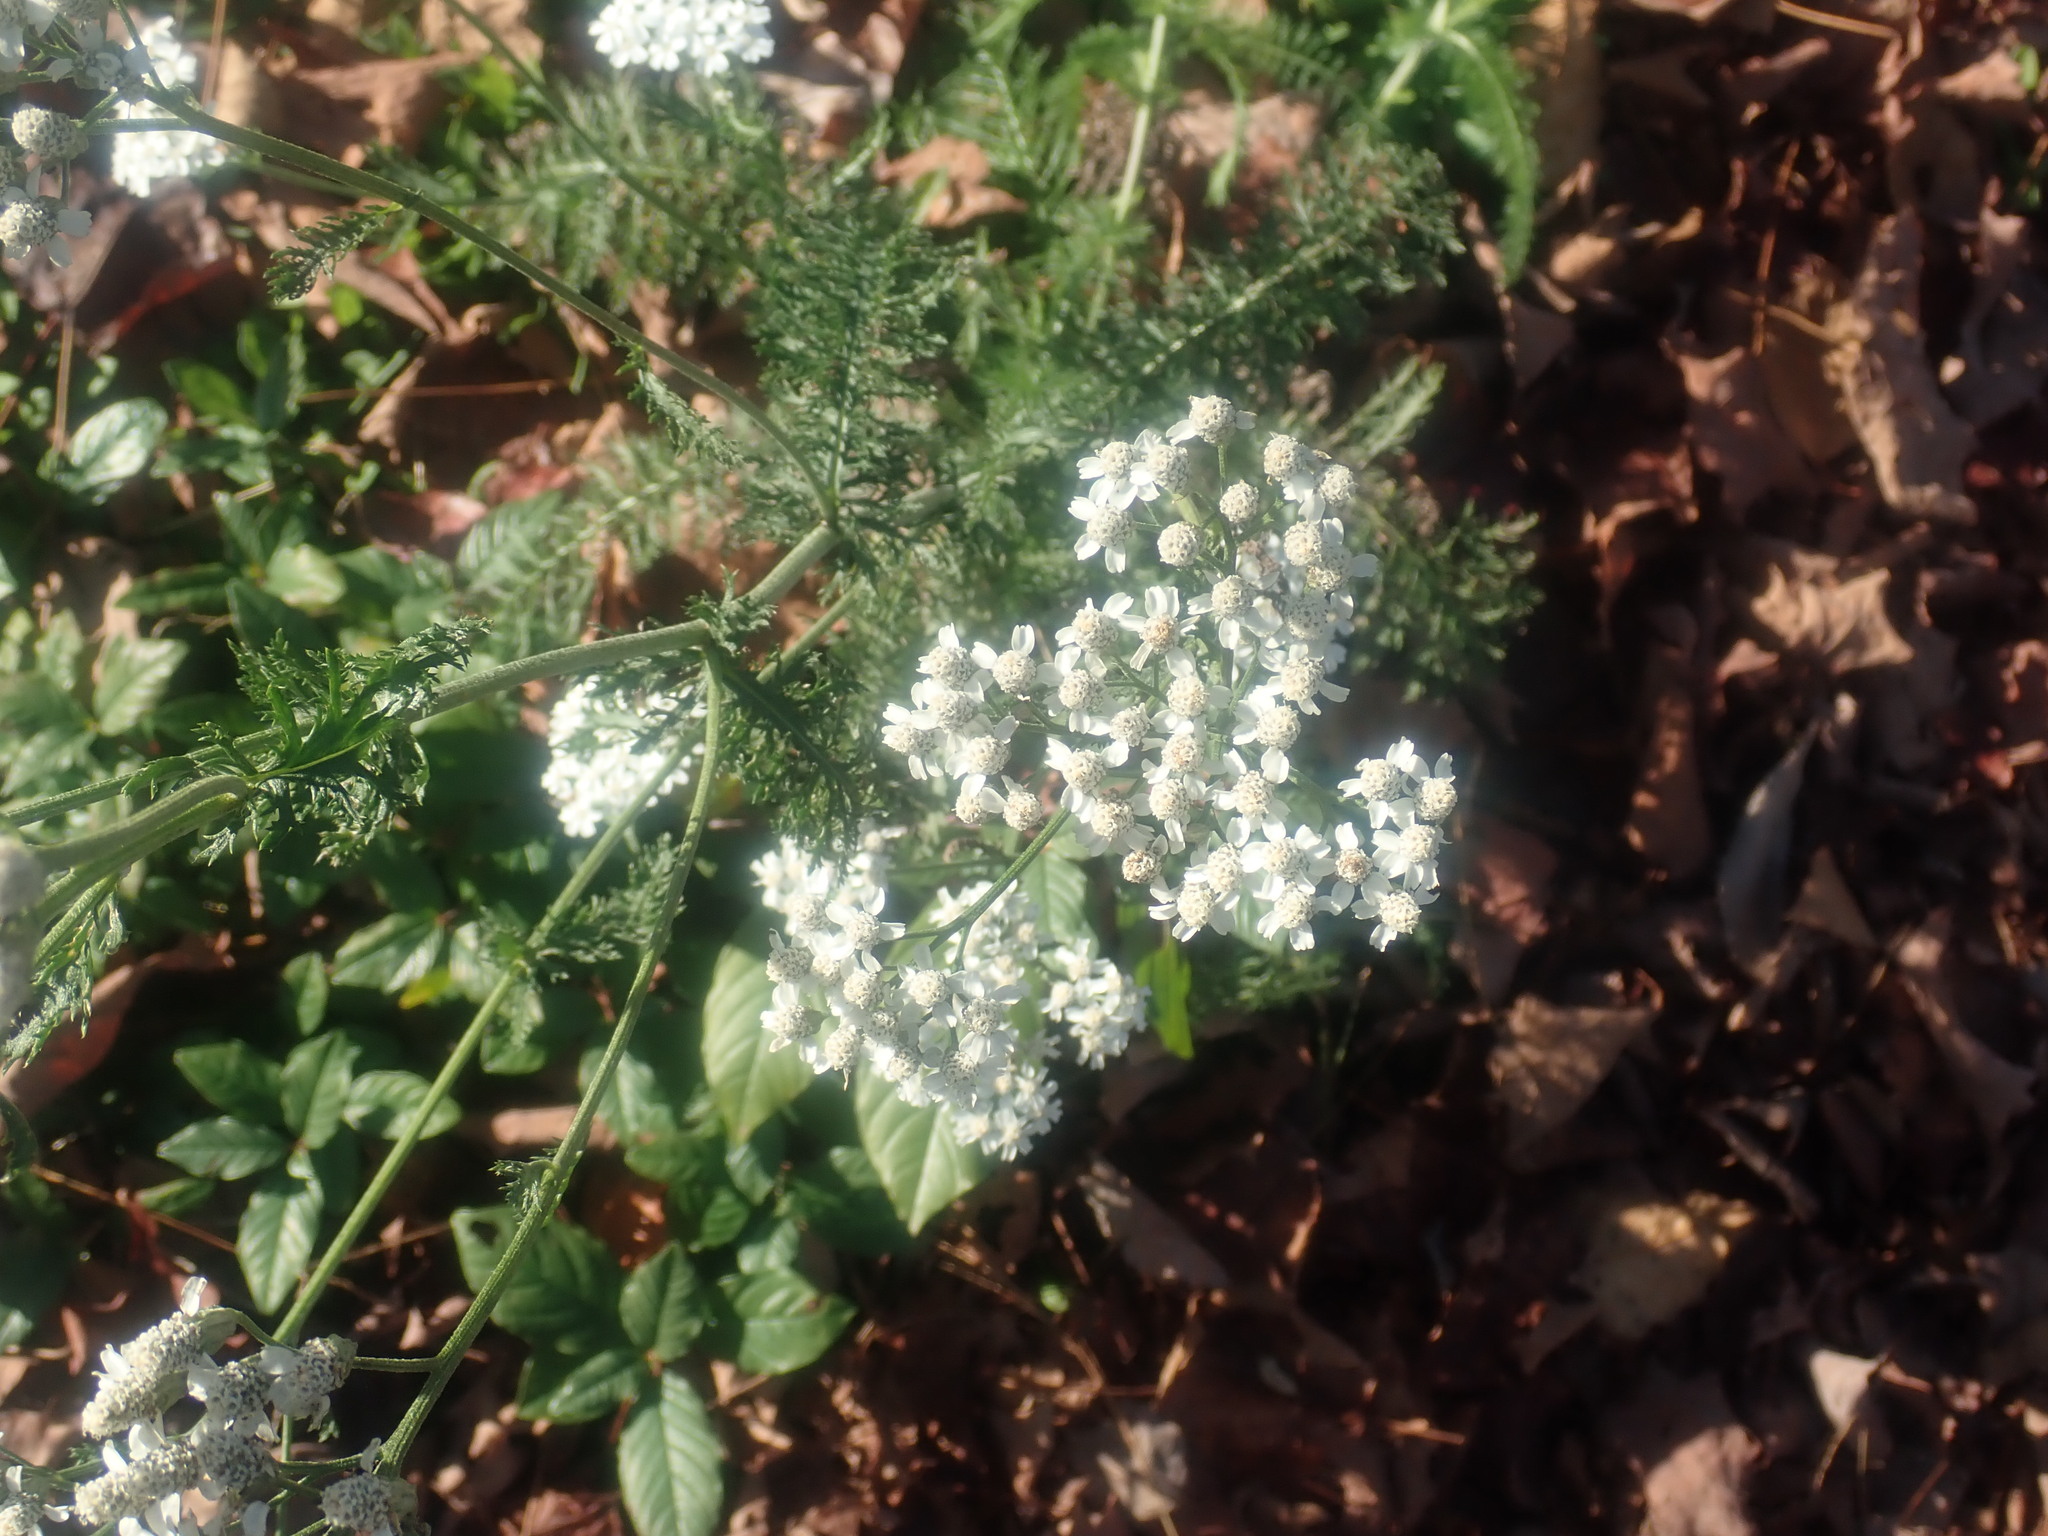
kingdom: Plantae
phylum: Tracheophyta
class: Magnoliopsida
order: Asterales
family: Asteraceae
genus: Achillea
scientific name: Achillea millefolium
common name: Yarrow
